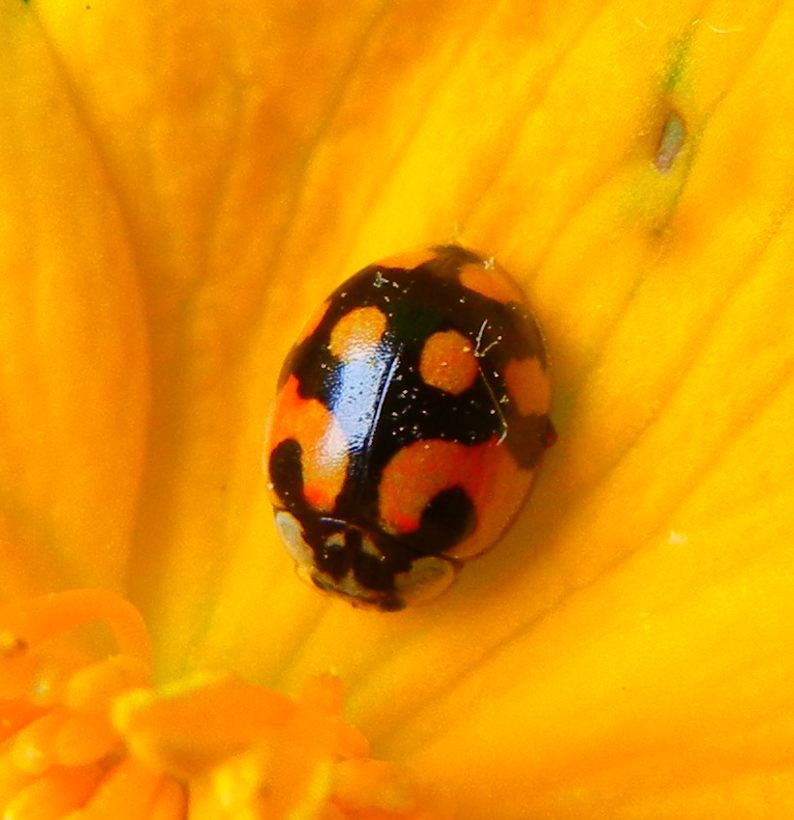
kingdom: Animalia
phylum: Arthropoda
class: Insecta
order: Coleoptera
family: Coccinellidae
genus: Adalia
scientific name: Adalia decempunctata
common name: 10-spot ladybird
